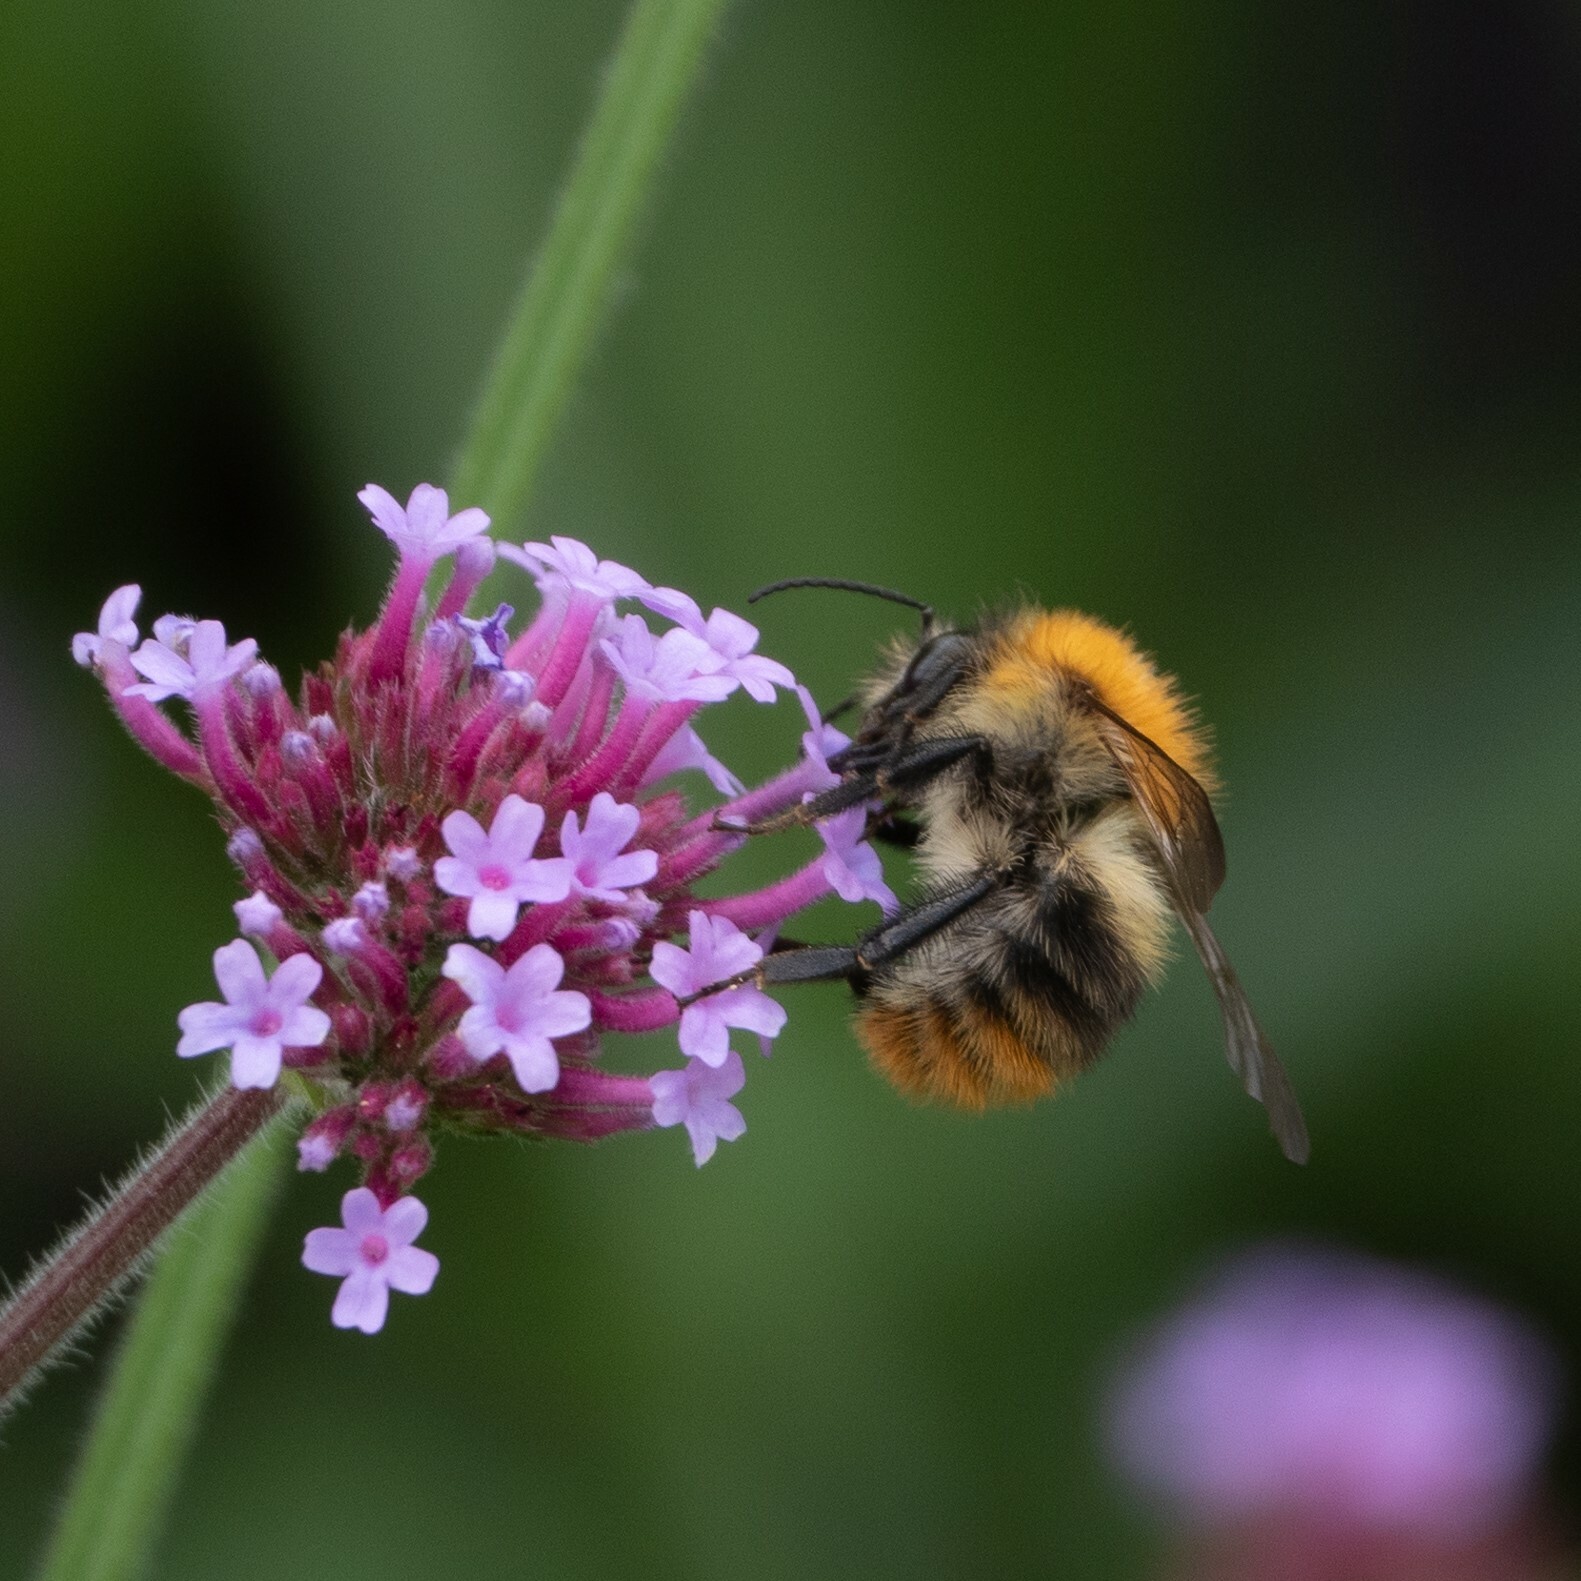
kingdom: Animalia
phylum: Arthropoda
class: Insecta
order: Hymenoptera
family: Apidae
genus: Bombus
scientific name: Bombus pascuorum
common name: Common carder bee
